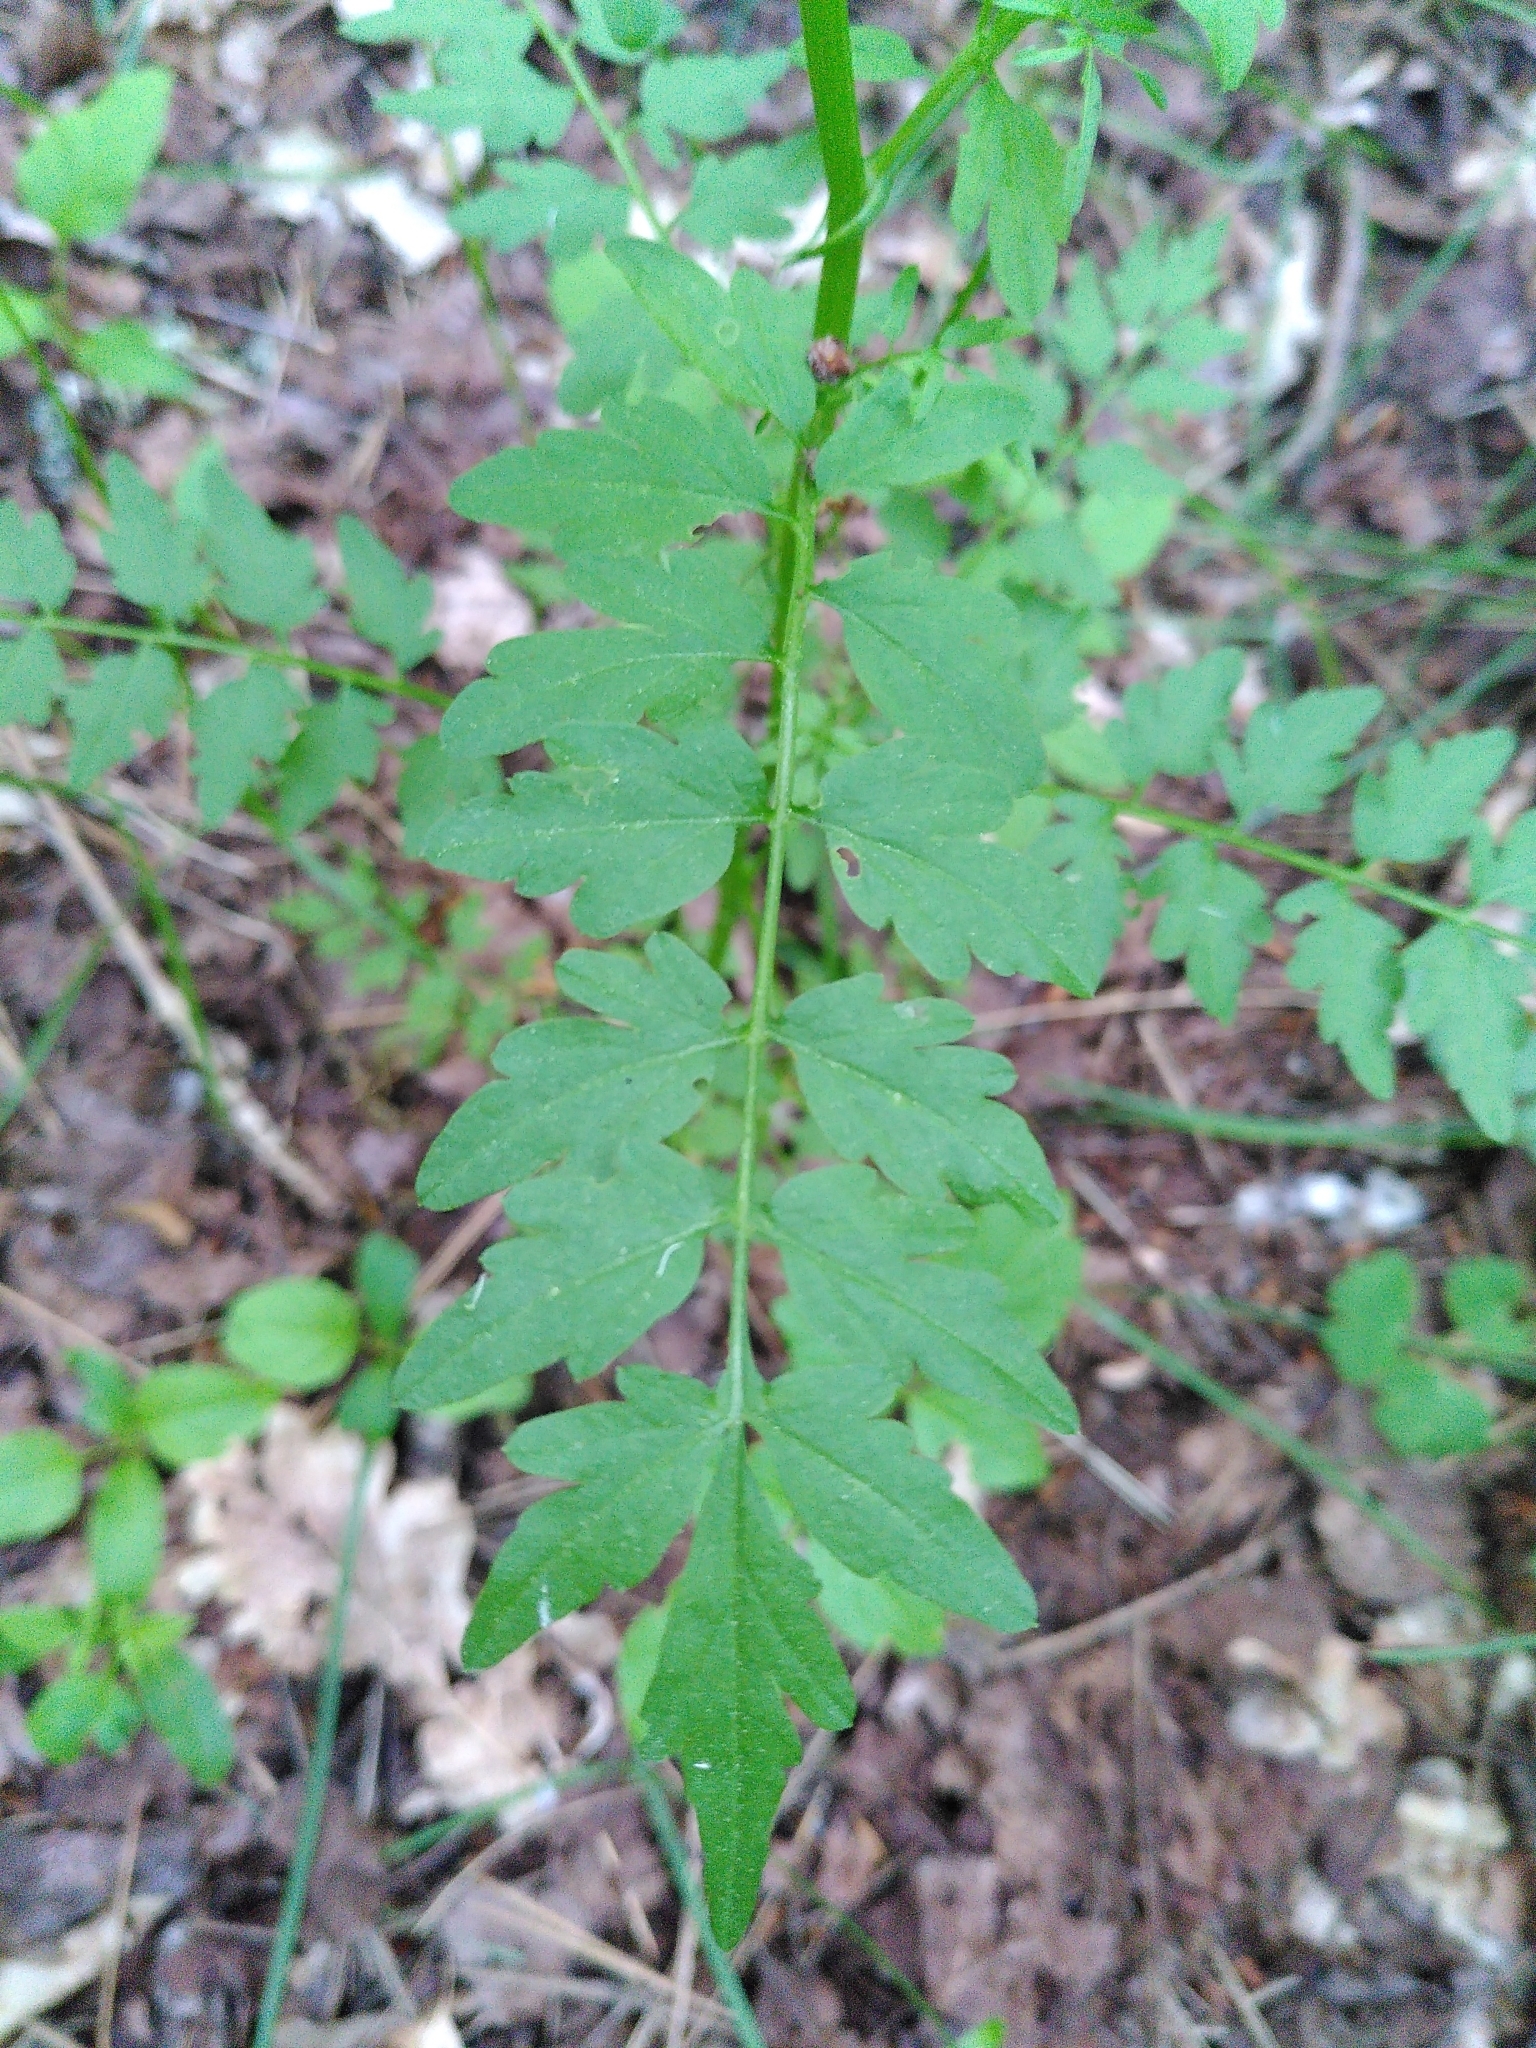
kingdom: Plantae
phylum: Tracheophyta
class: Magnoliopsida
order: Brassicales
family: Brassicaceae
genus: Cardamine
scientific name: Cardamine impatiens
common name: Narrow-leaved bitter-cress
